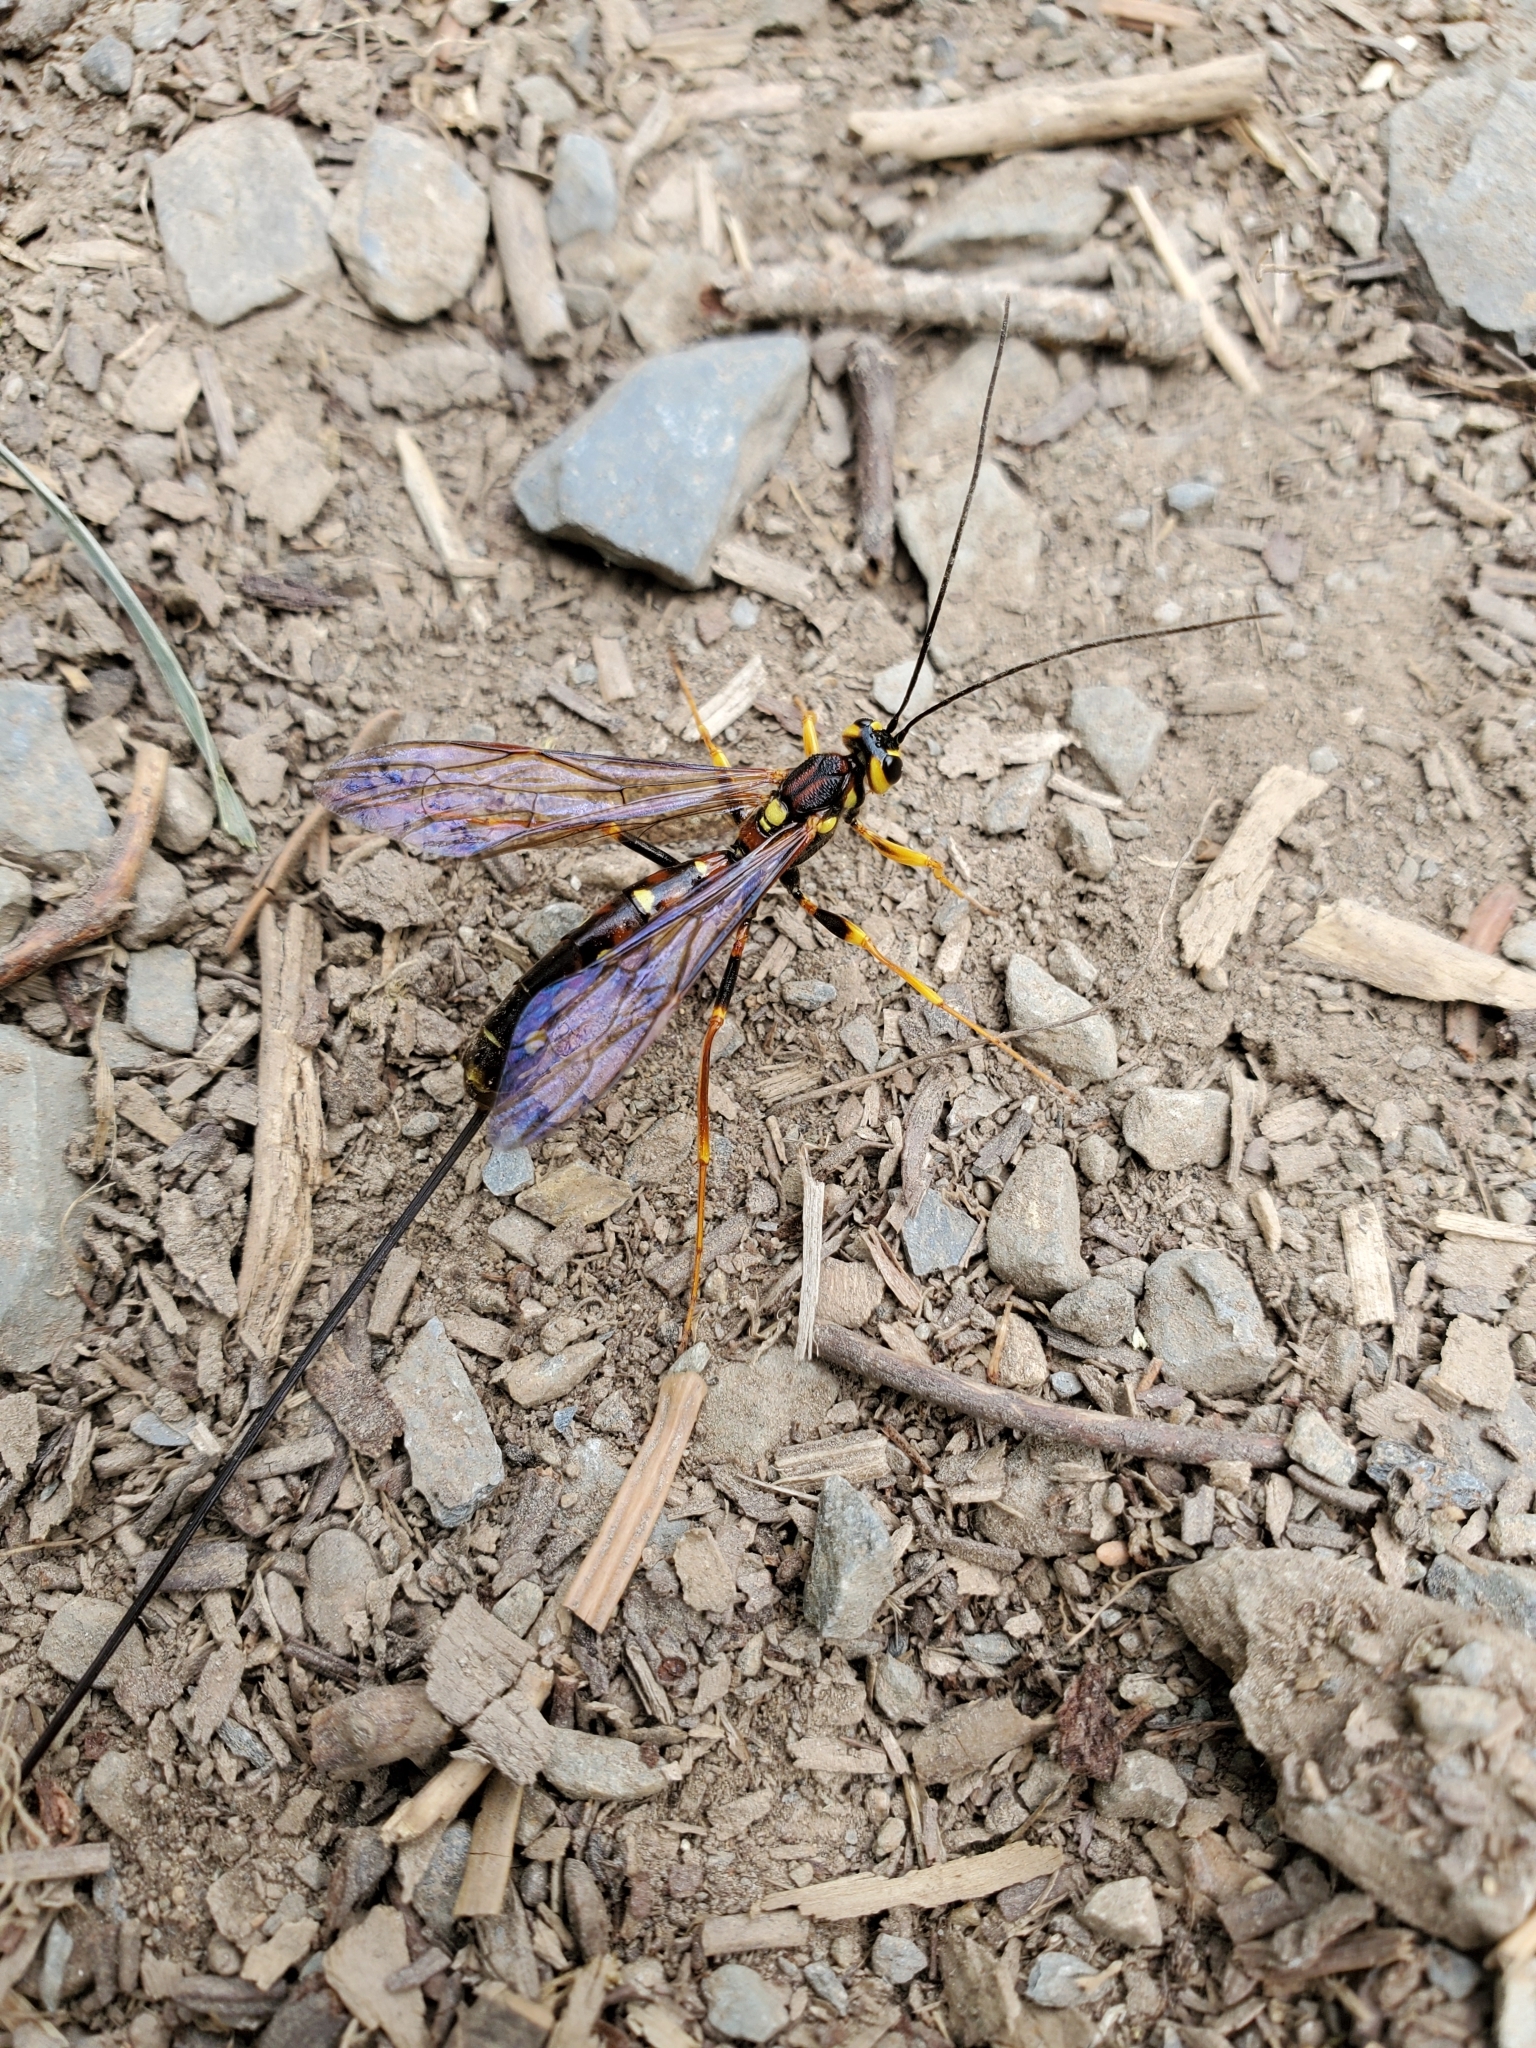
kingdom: Animalia
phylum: Arthropoda
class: Insecta
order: Hymenoptera
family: Ichneumonidae
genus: Megarhyssa
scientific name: Megarhyssa nortoni
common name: Norton's giant ichneumonid wasp
